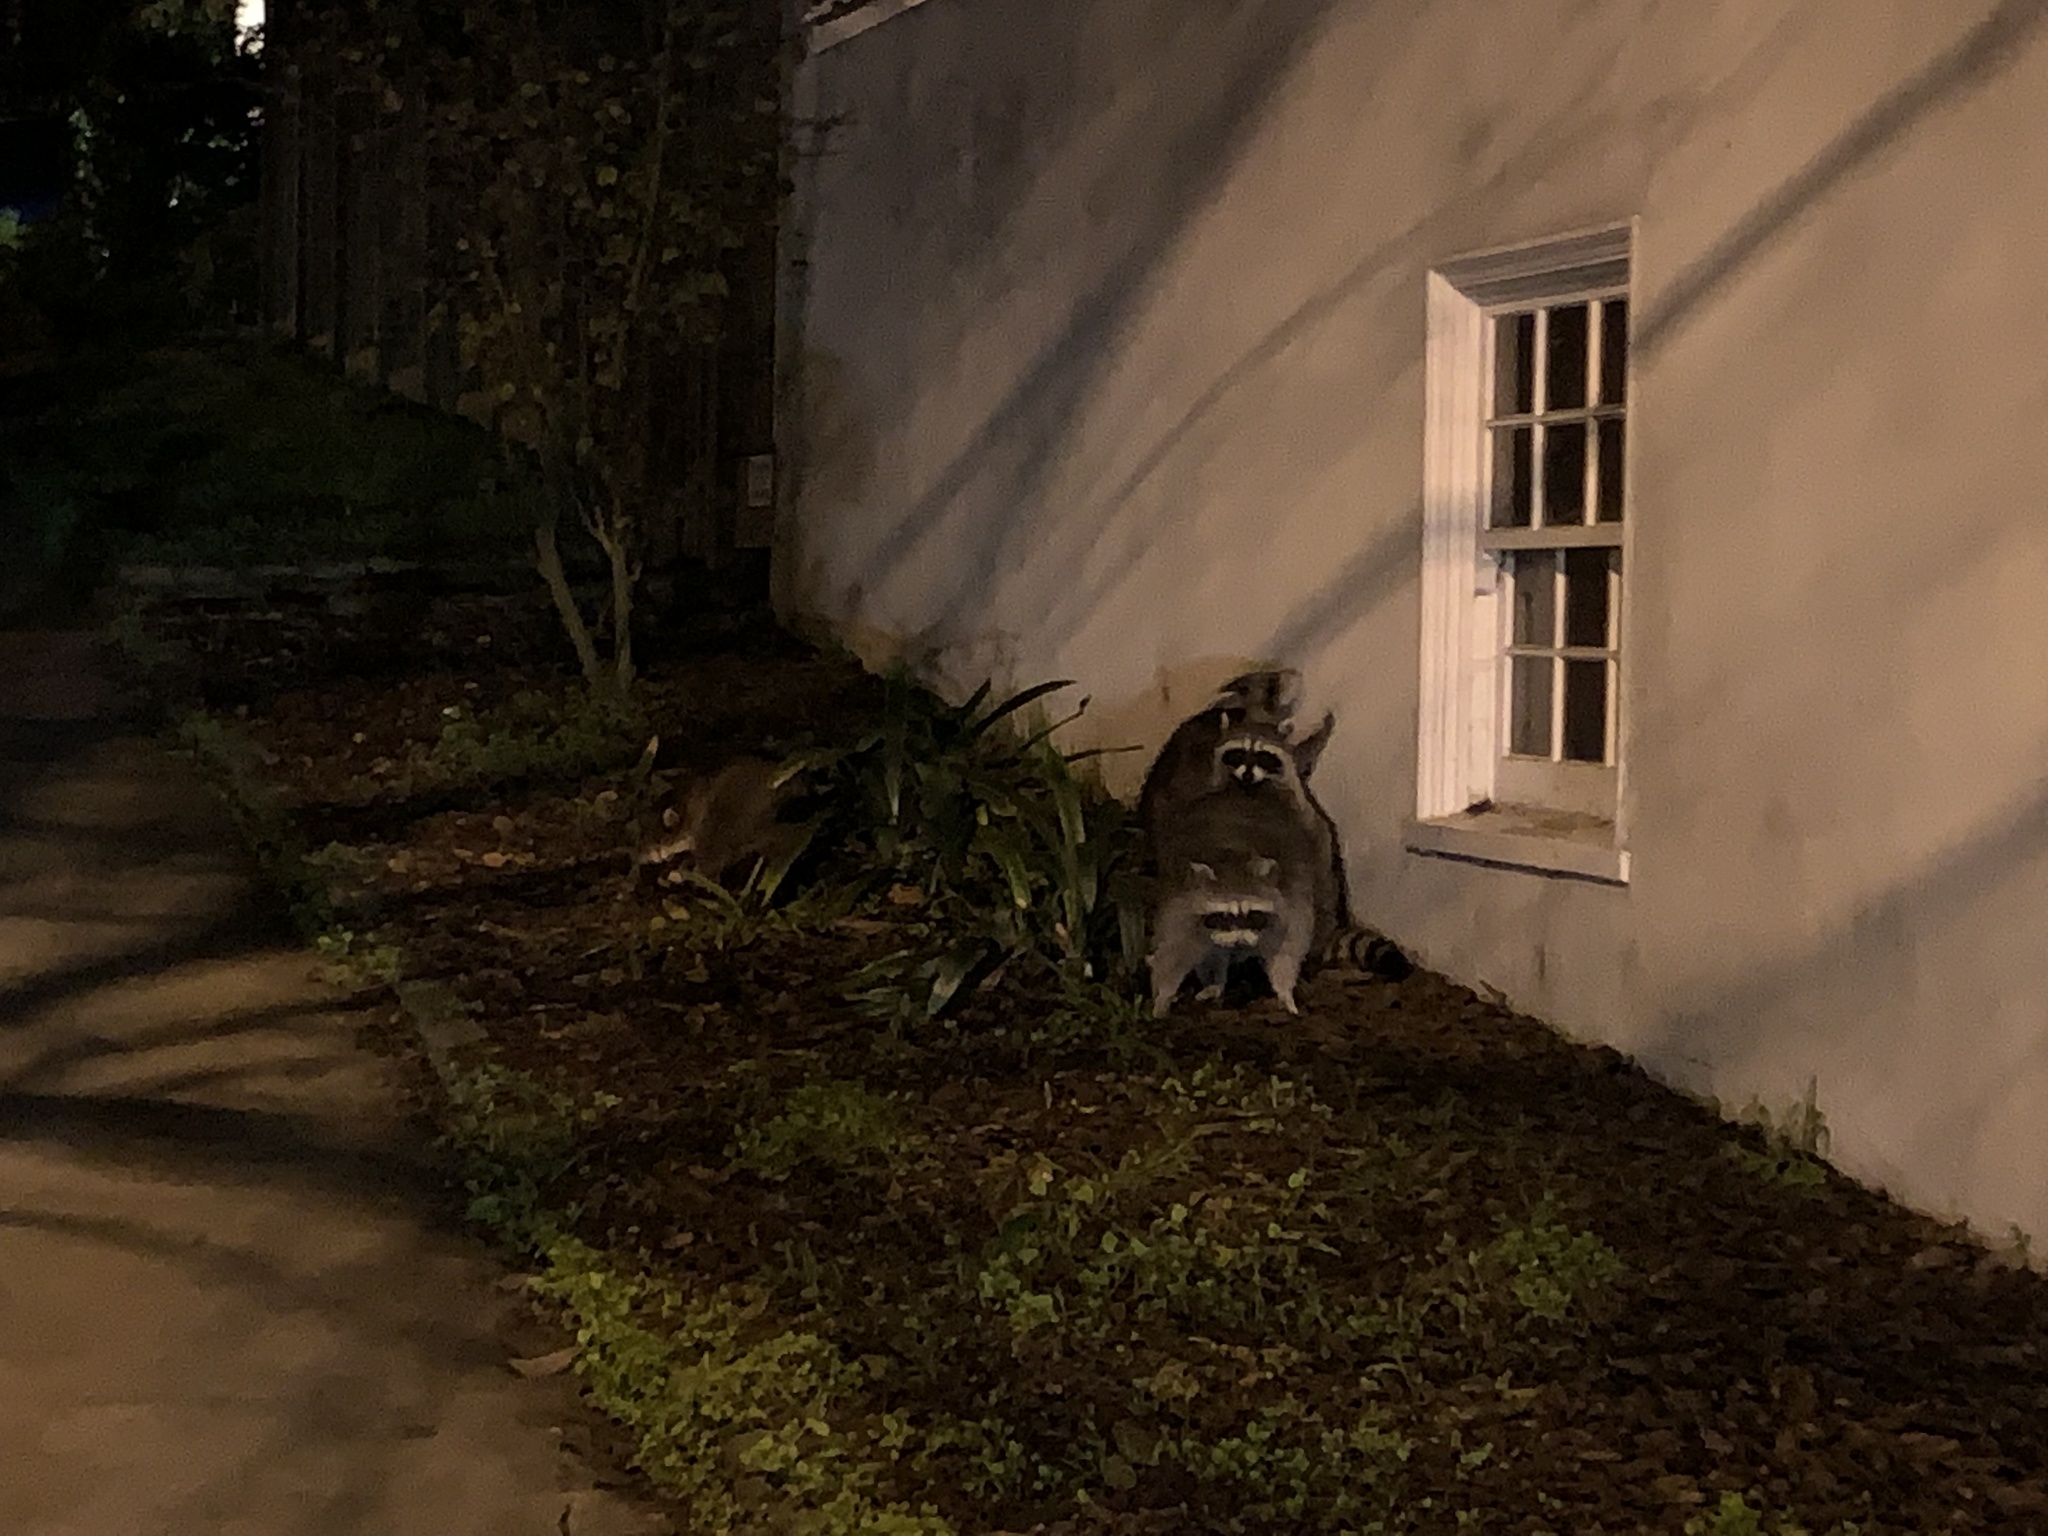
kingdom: Animalia
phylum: Chordata
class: Mammalia
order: Carnivora
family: Procyonidae
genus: Procyon
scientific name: Procyon lotor
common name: Raccoon
